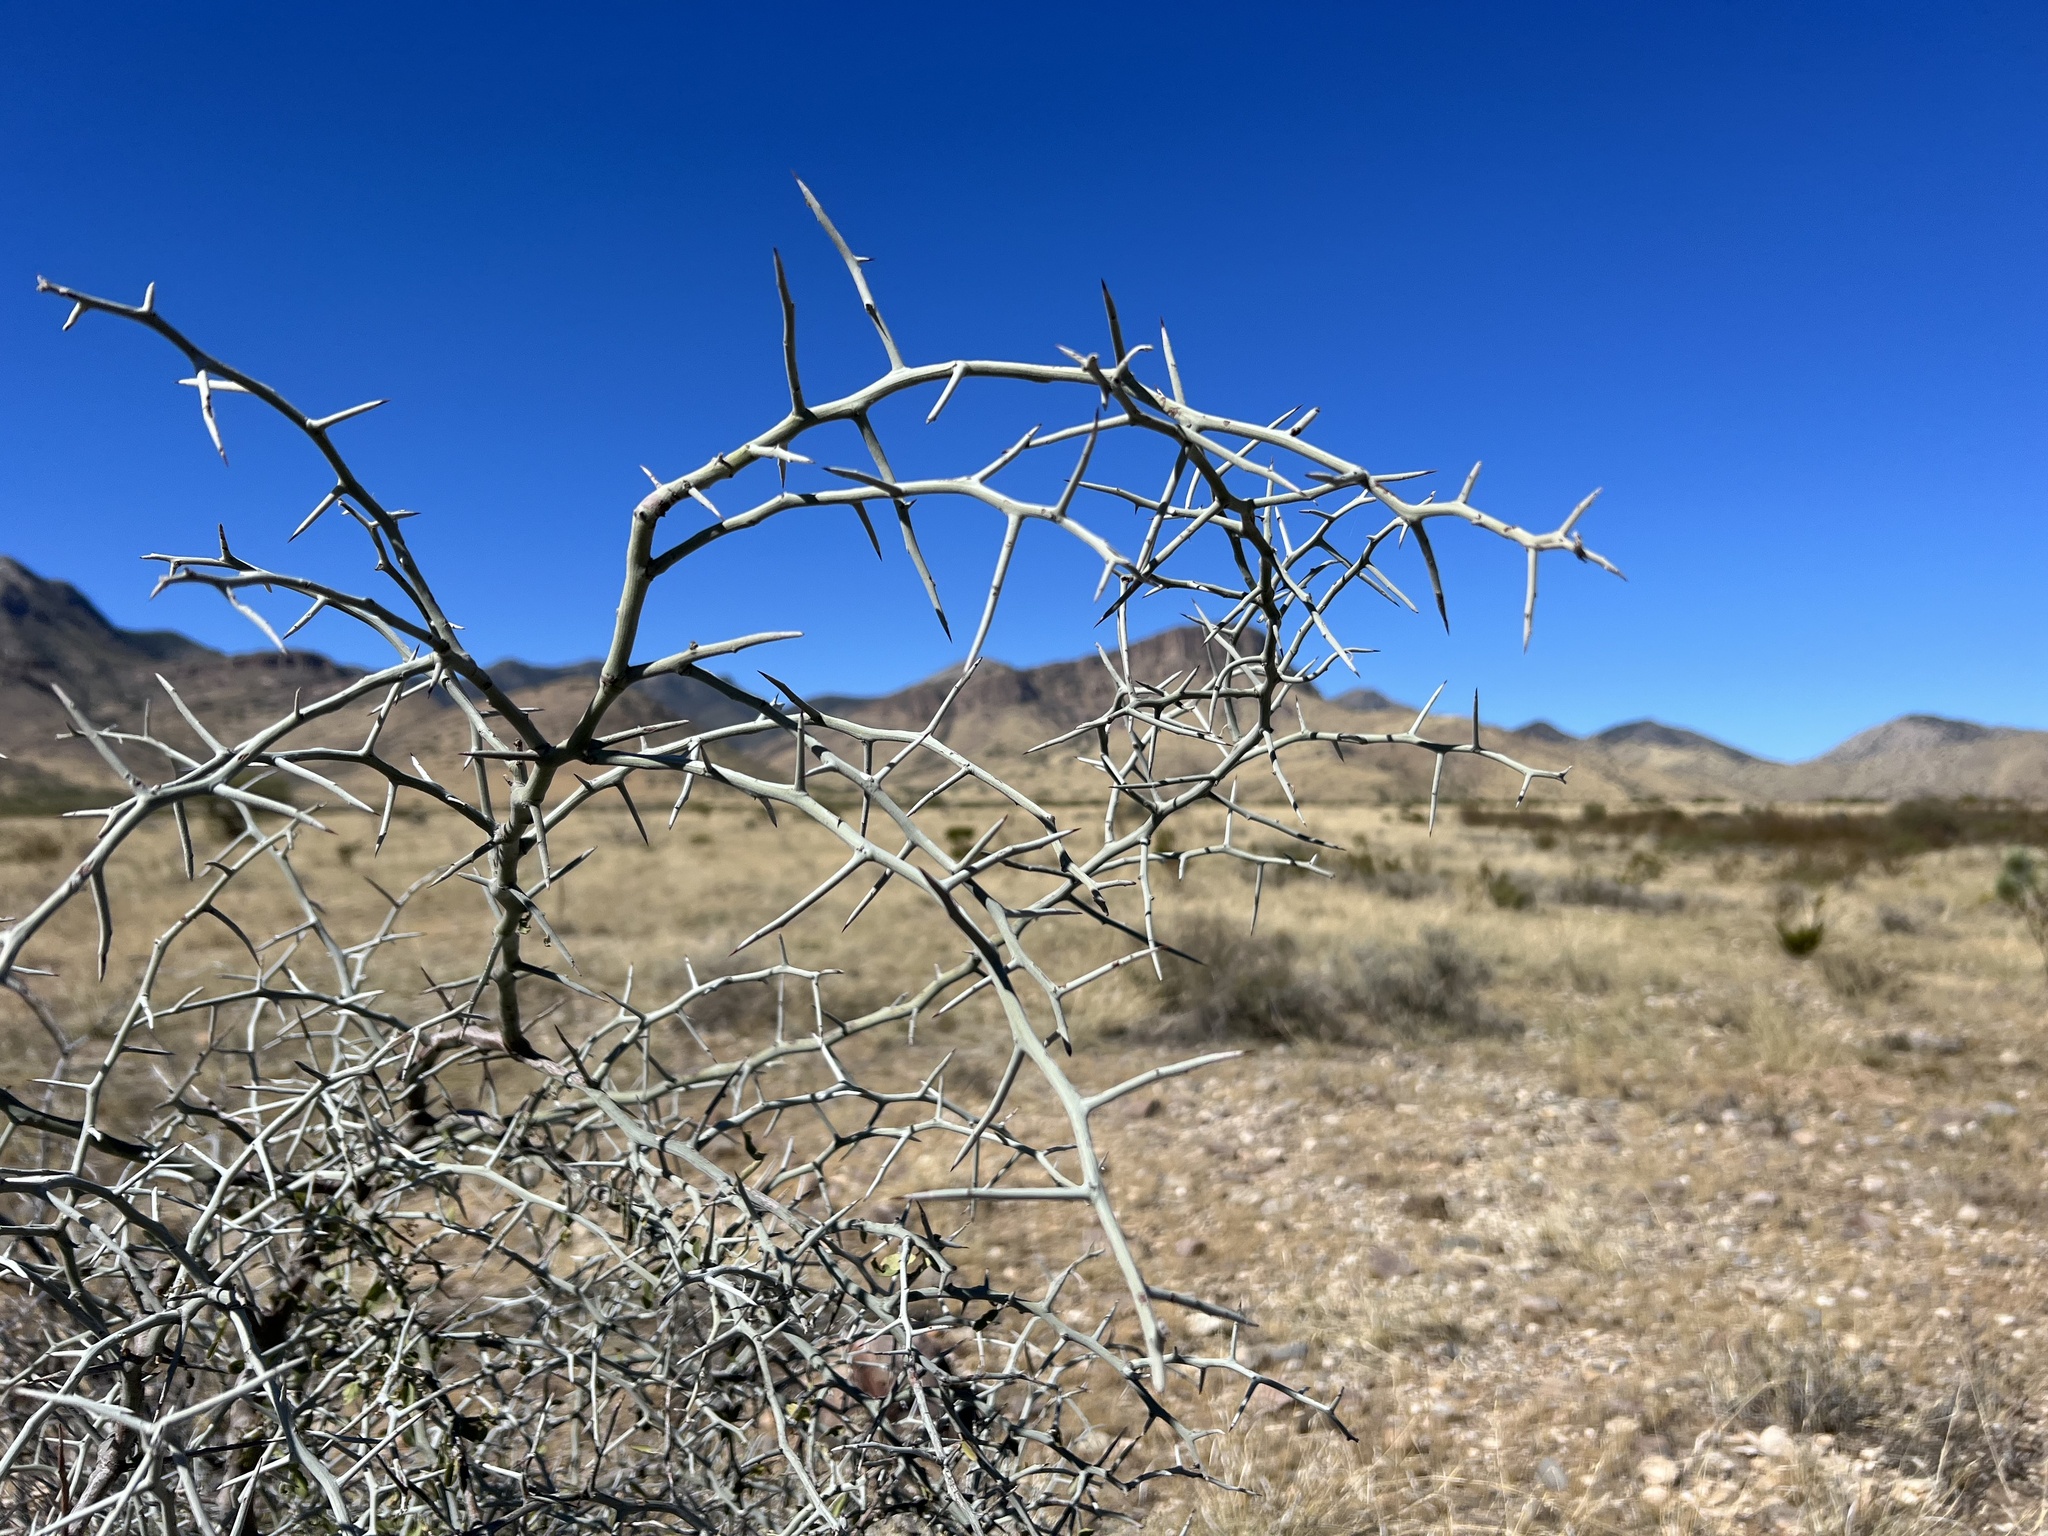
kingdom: Plantae
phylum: Tracheophyta
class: Magnoliopsida
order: Rosales
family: Rhamnaceae
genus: Sarcomphalus
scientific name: Sarcomphalus obtusifolius
